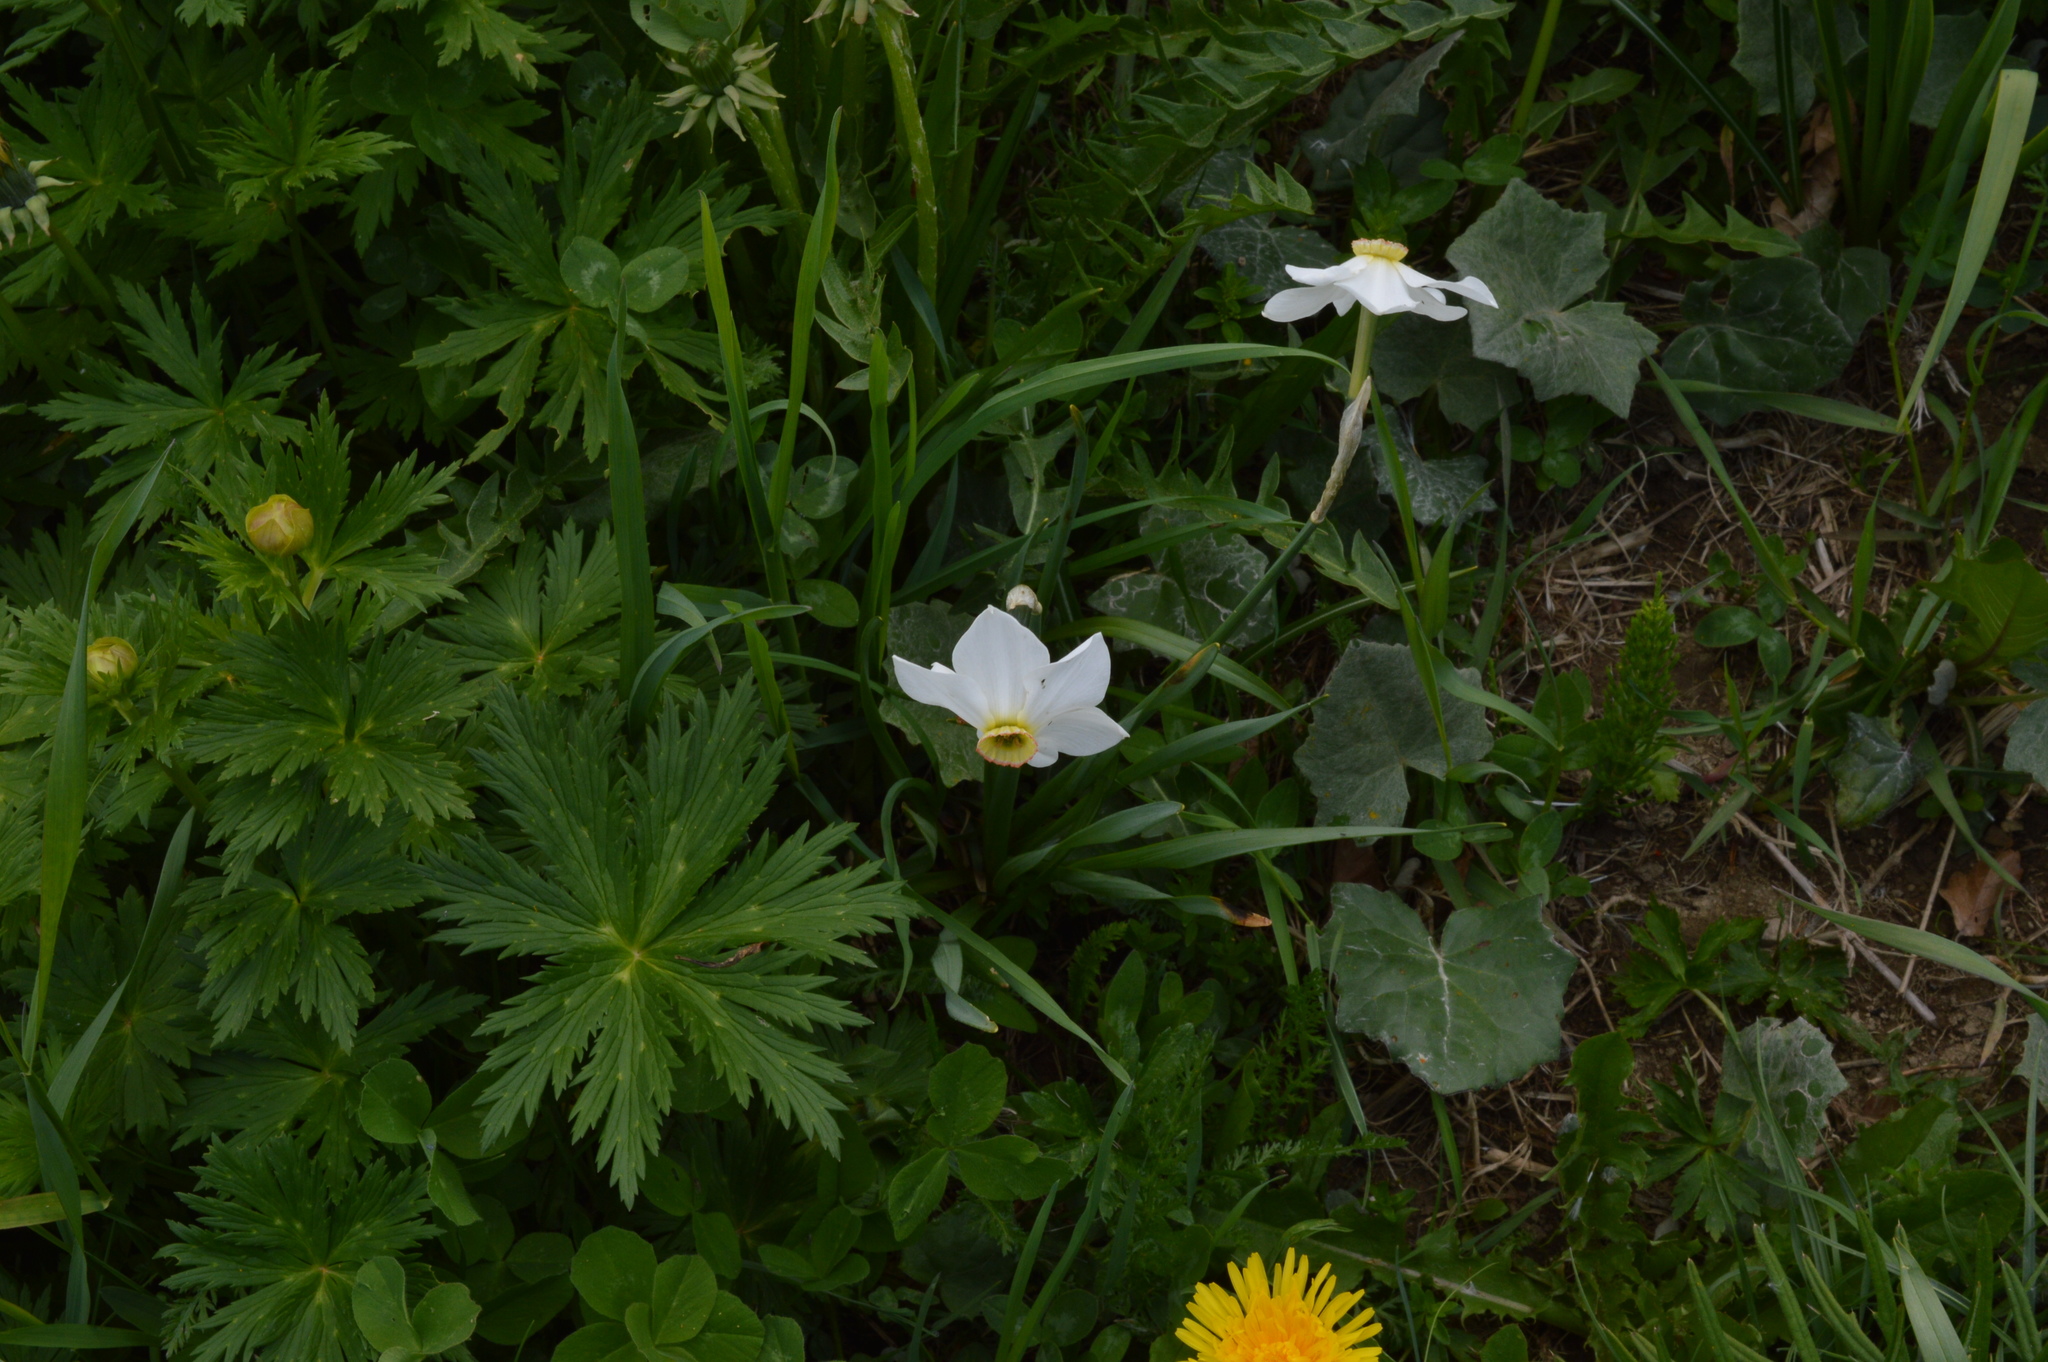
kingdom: Plantae
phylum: Tracheophyta
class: Liliopsida
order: Asparagales
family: Amaryllidaceae
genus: Narcissus
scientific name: Narcissus poeticus
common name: Pheasant's-eye daffodil
